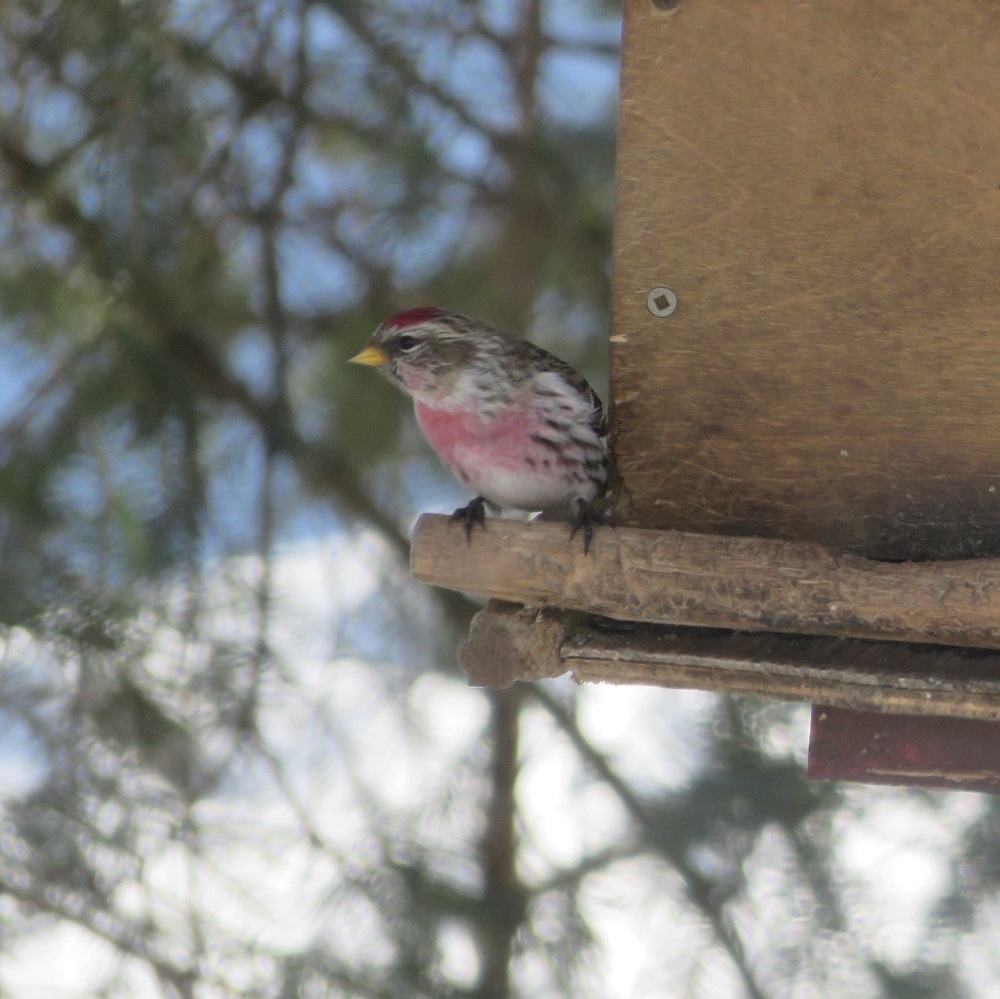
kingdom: Animalia
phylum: Chordata
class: Aves
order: Passeriformes
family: Fringillidae
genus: Acanthis
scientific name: Acanthis flammea
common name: Common redpoll
